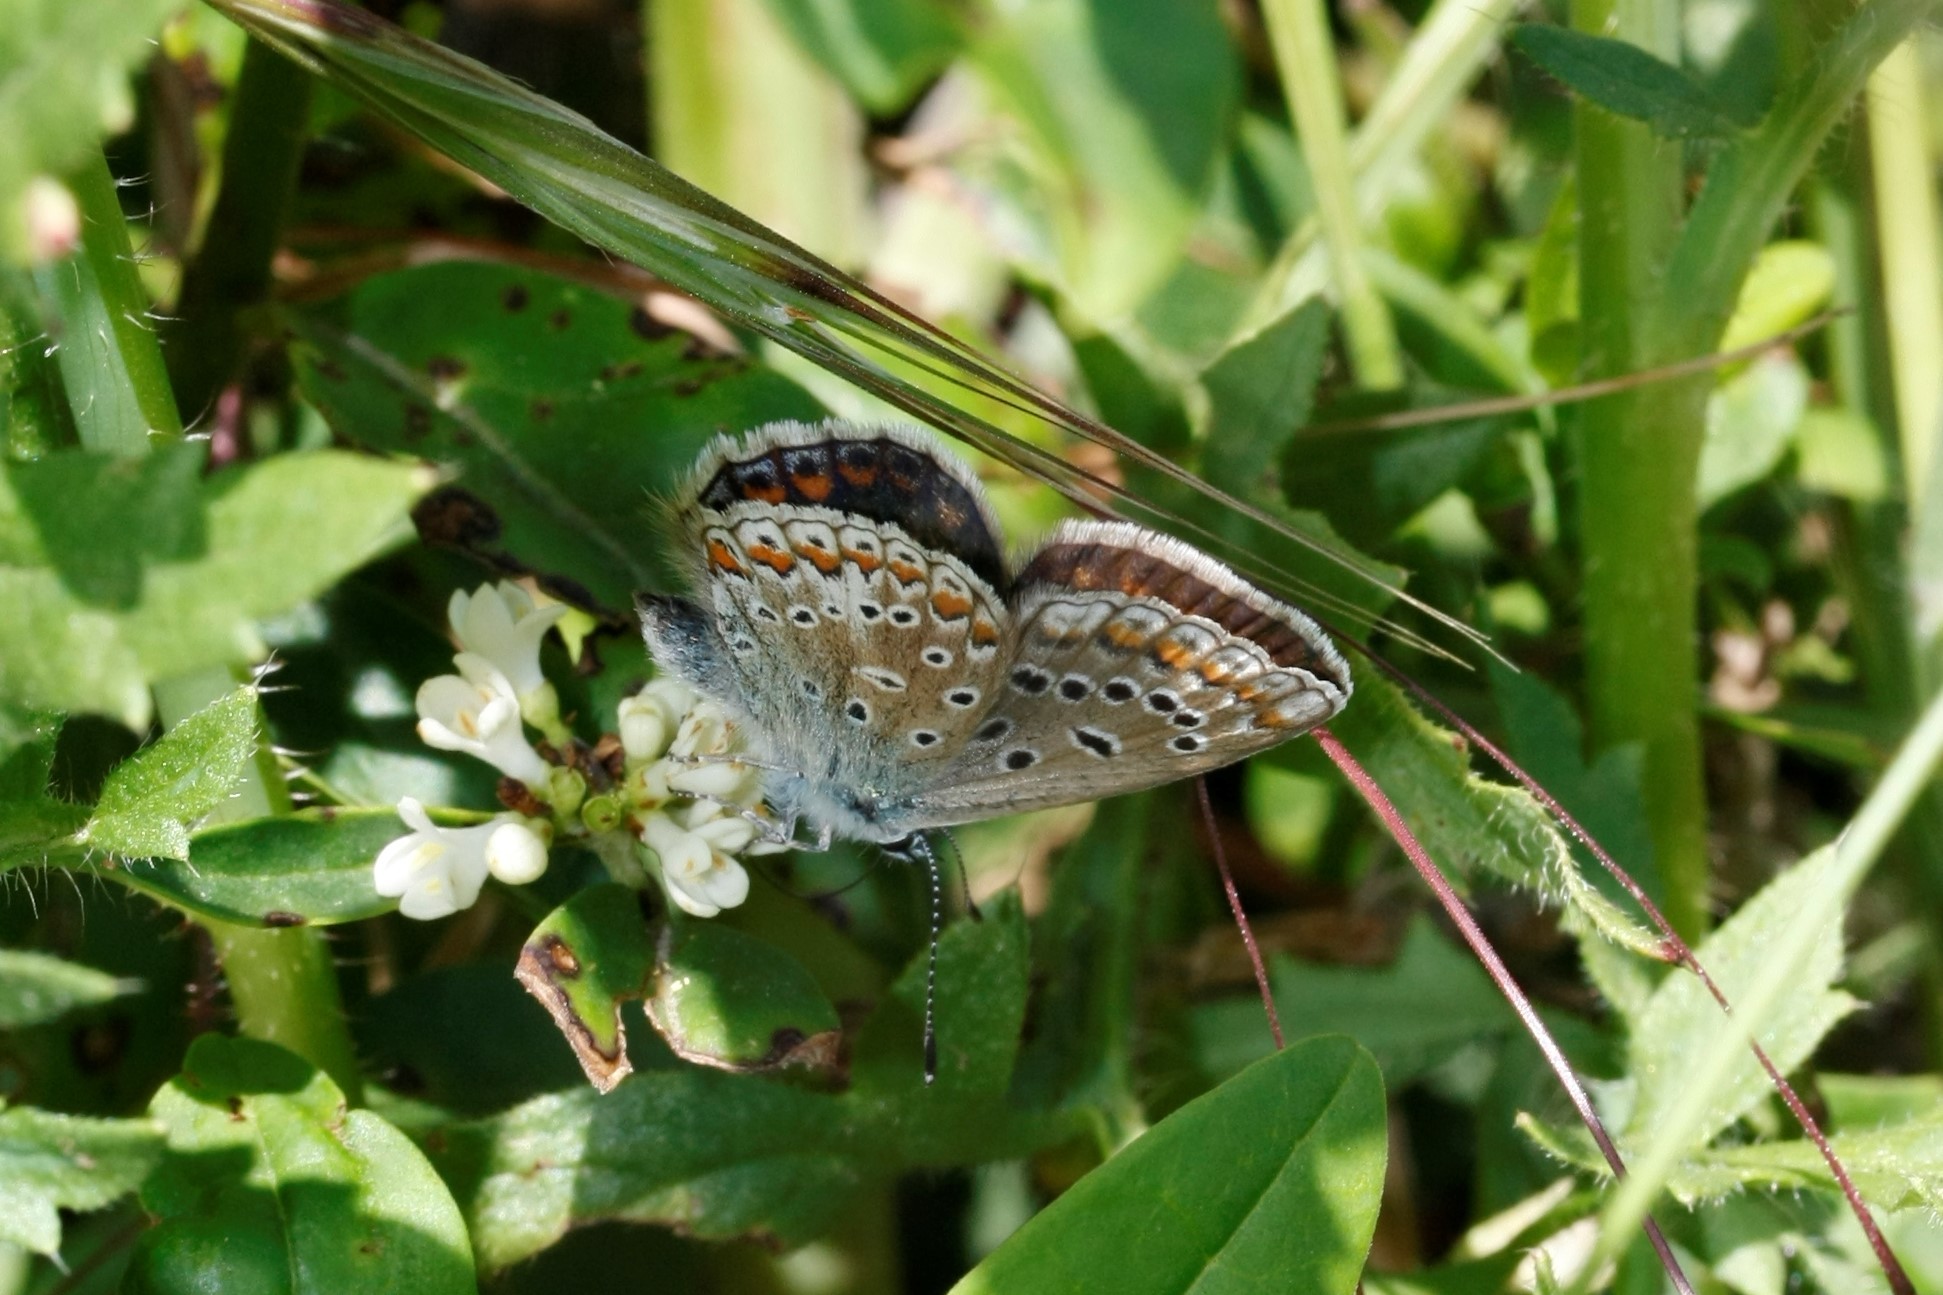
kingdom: Animalia
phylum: Arthropoda
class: Insecta
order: Lepidoptera
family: Lycaenidae
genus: Polyommatus
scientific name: Polyommatus icarus
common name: Common blue
